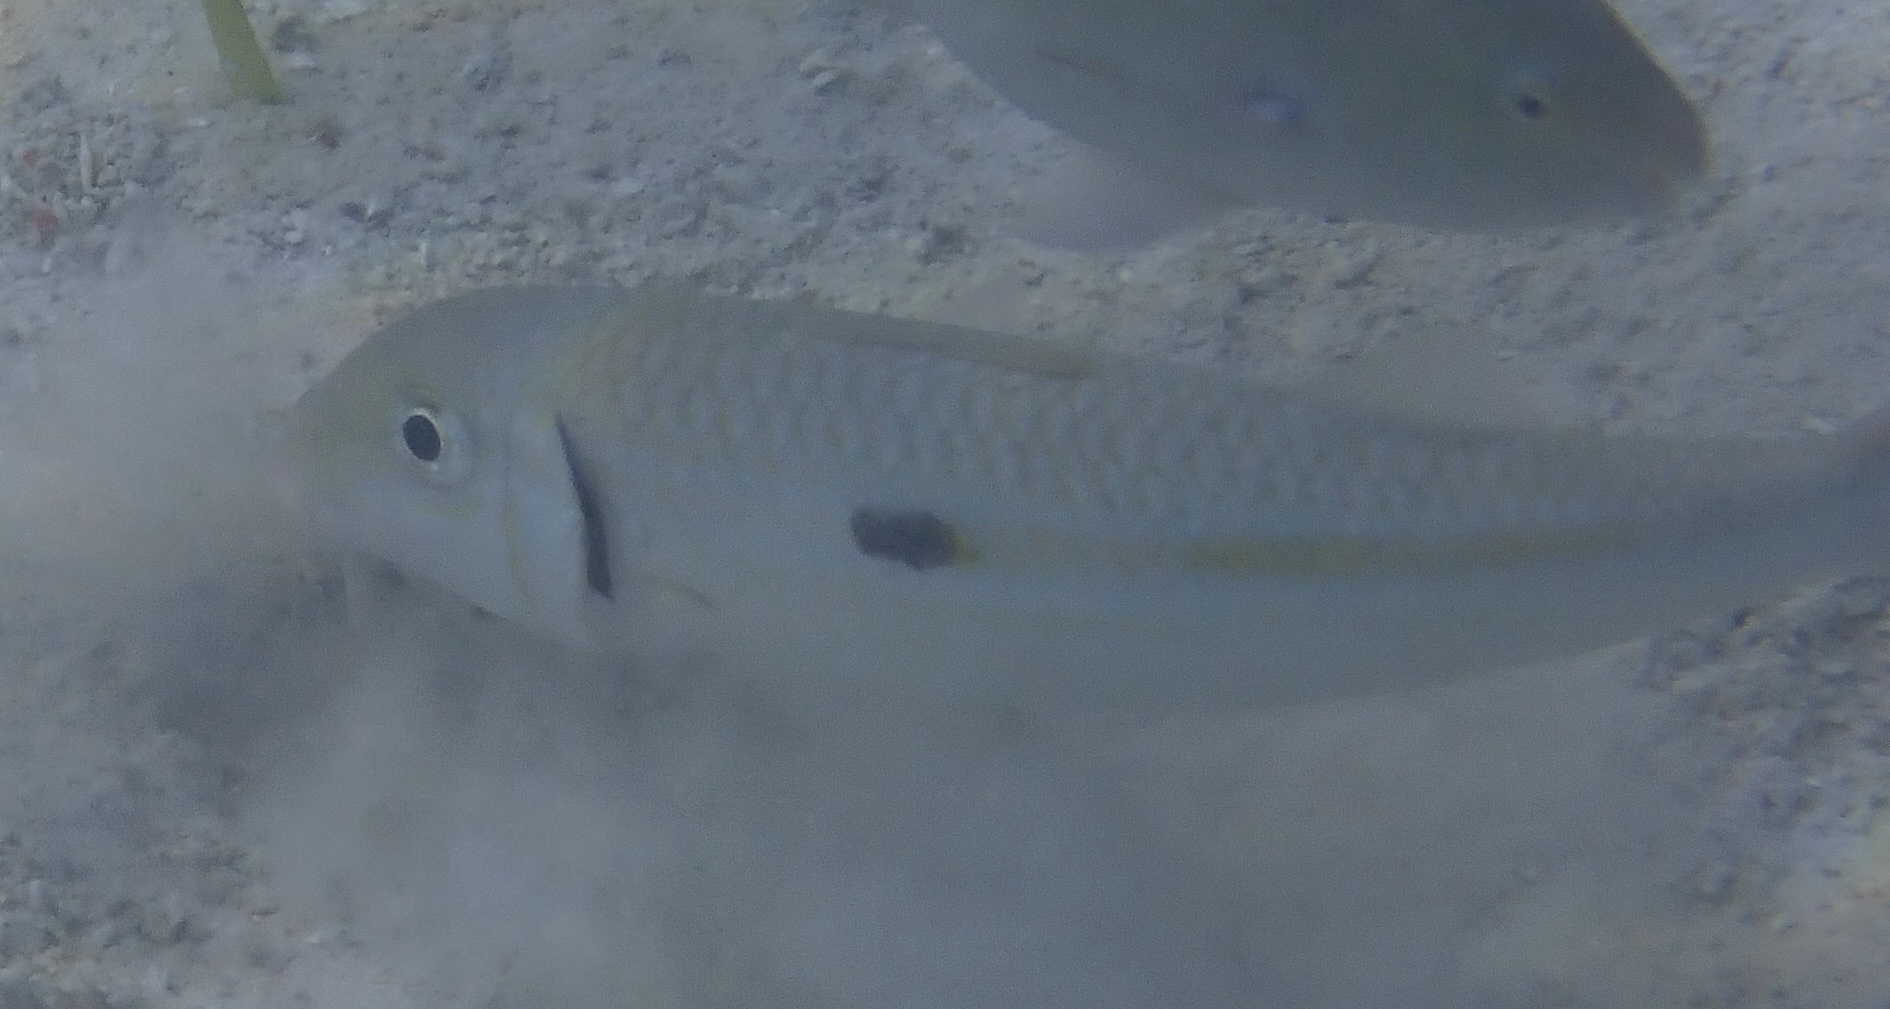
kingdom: Animalia
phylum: Chordata
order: Perciformes
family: Mullidae
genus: Mulloidichthys
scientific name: Mulloidichthys flavolineatus
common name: Yellowstripe goatfish
